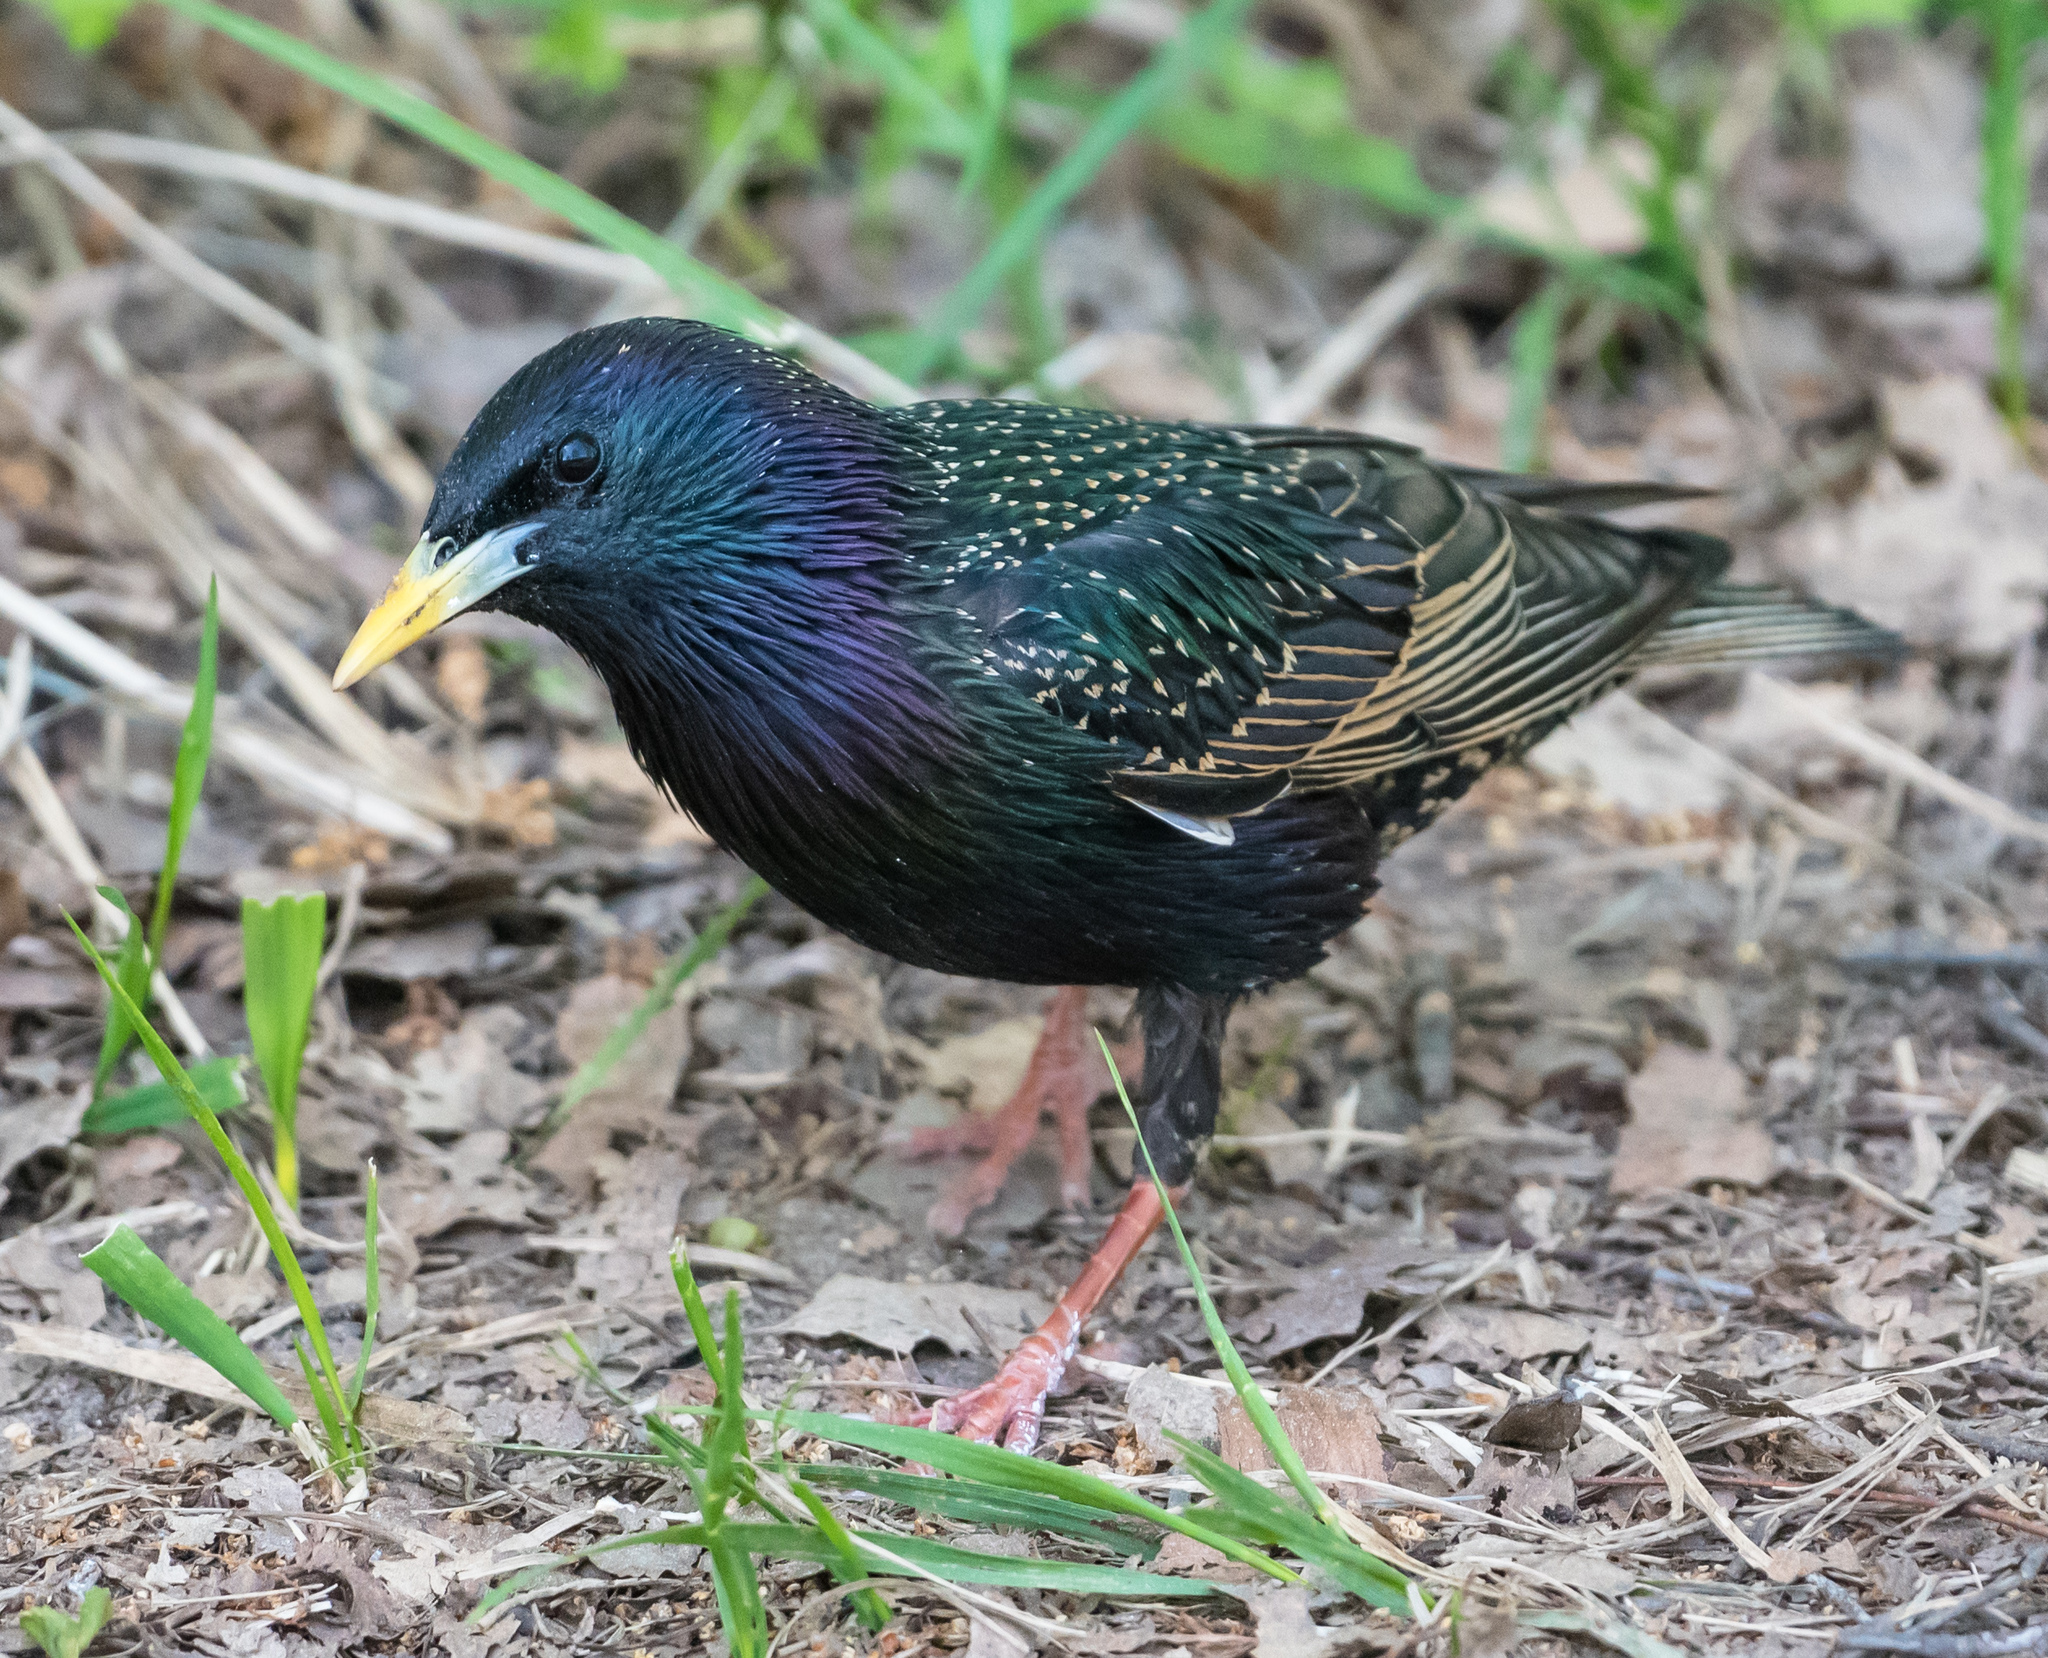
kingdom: Animalia
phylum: Chordata
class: Aves
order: Passeriformes
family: Sturnidae
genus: Sturnus
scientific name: Sturnus vulgaris
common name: Common starling
